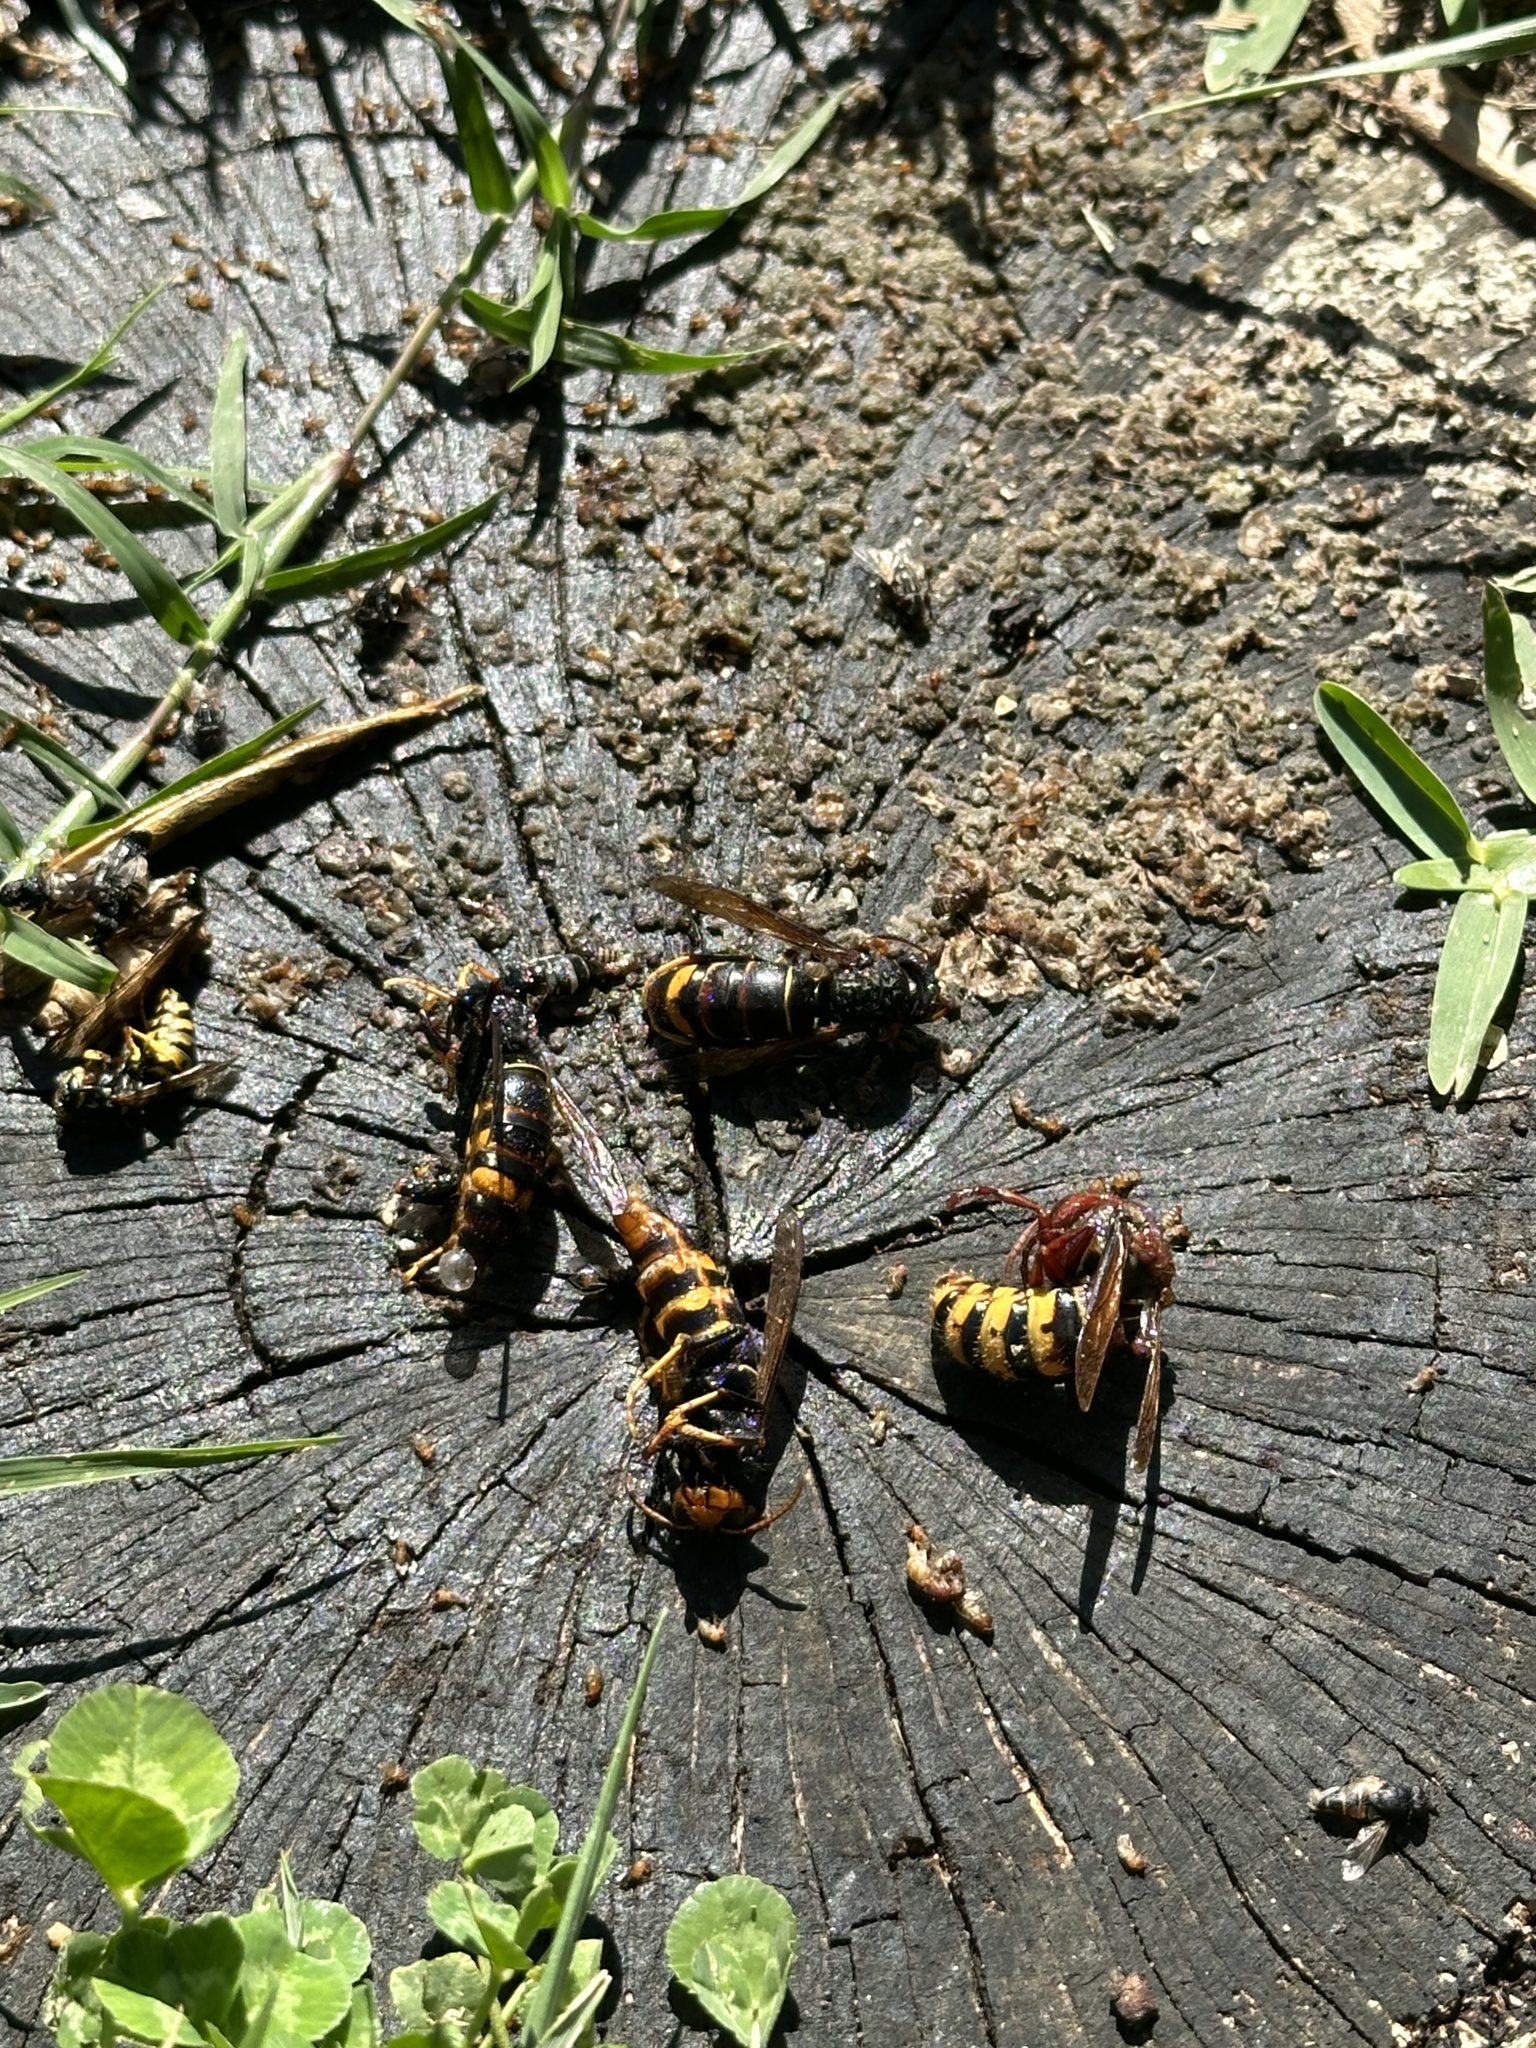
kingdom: Animalia
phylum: Arthropoda
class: Insecta
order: Hymenoptera
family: Vespidae
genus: Vespa
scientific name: Vespa velutina
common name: Asian hornet
